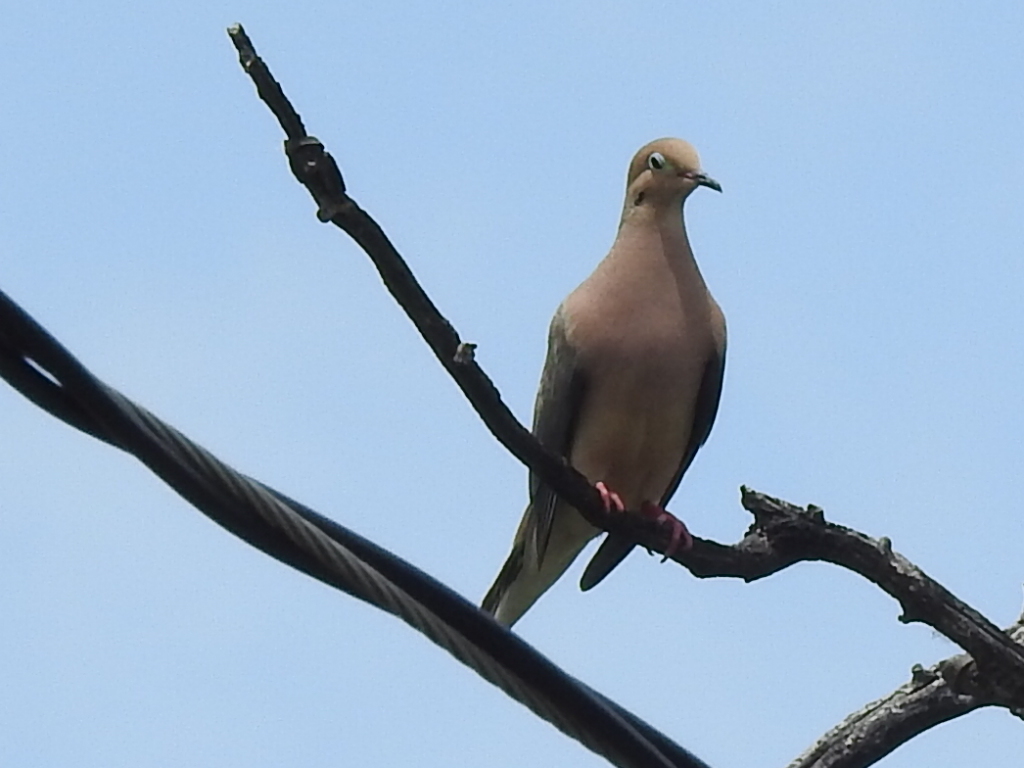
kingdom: Animalia
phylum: Chordata
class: Aves
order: Columbiformes
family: Columbidae
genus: Zenaida
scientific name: Zenaida macroura
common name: Mourning dove
